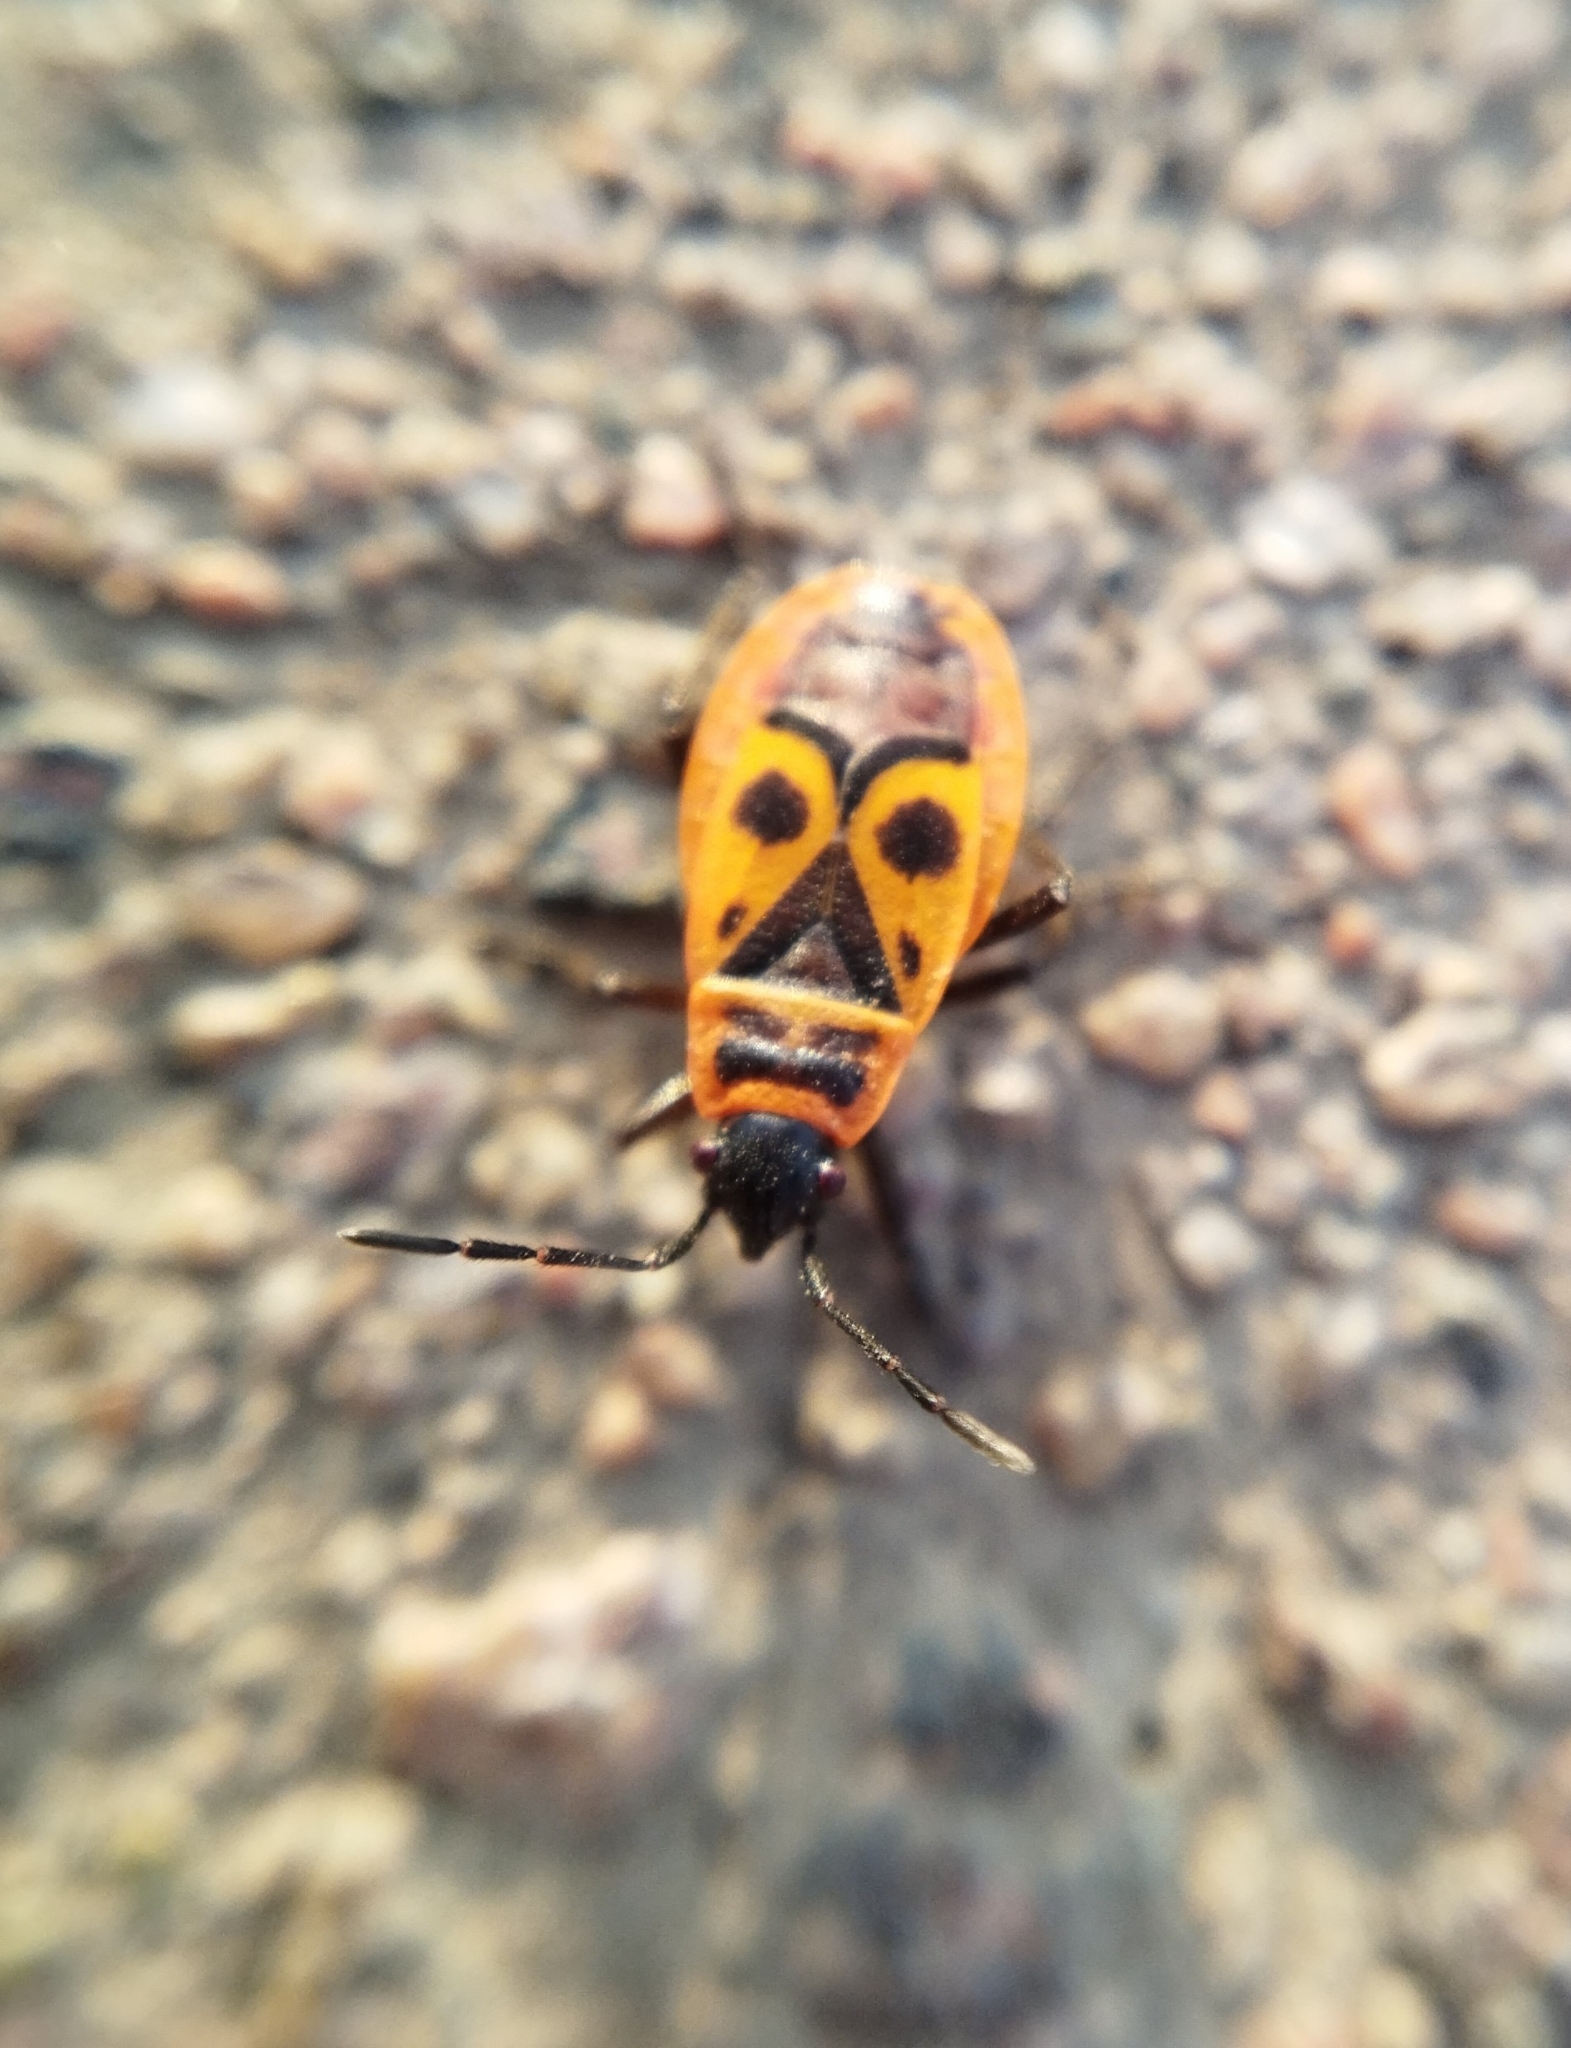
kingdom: Animalia
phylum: Arthropoda
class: Insecta
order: Hemiptera
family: Pyrrhocoridae
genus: Pyrrhocoris
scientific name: Pyrrhocoris apterus
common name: Firebug
